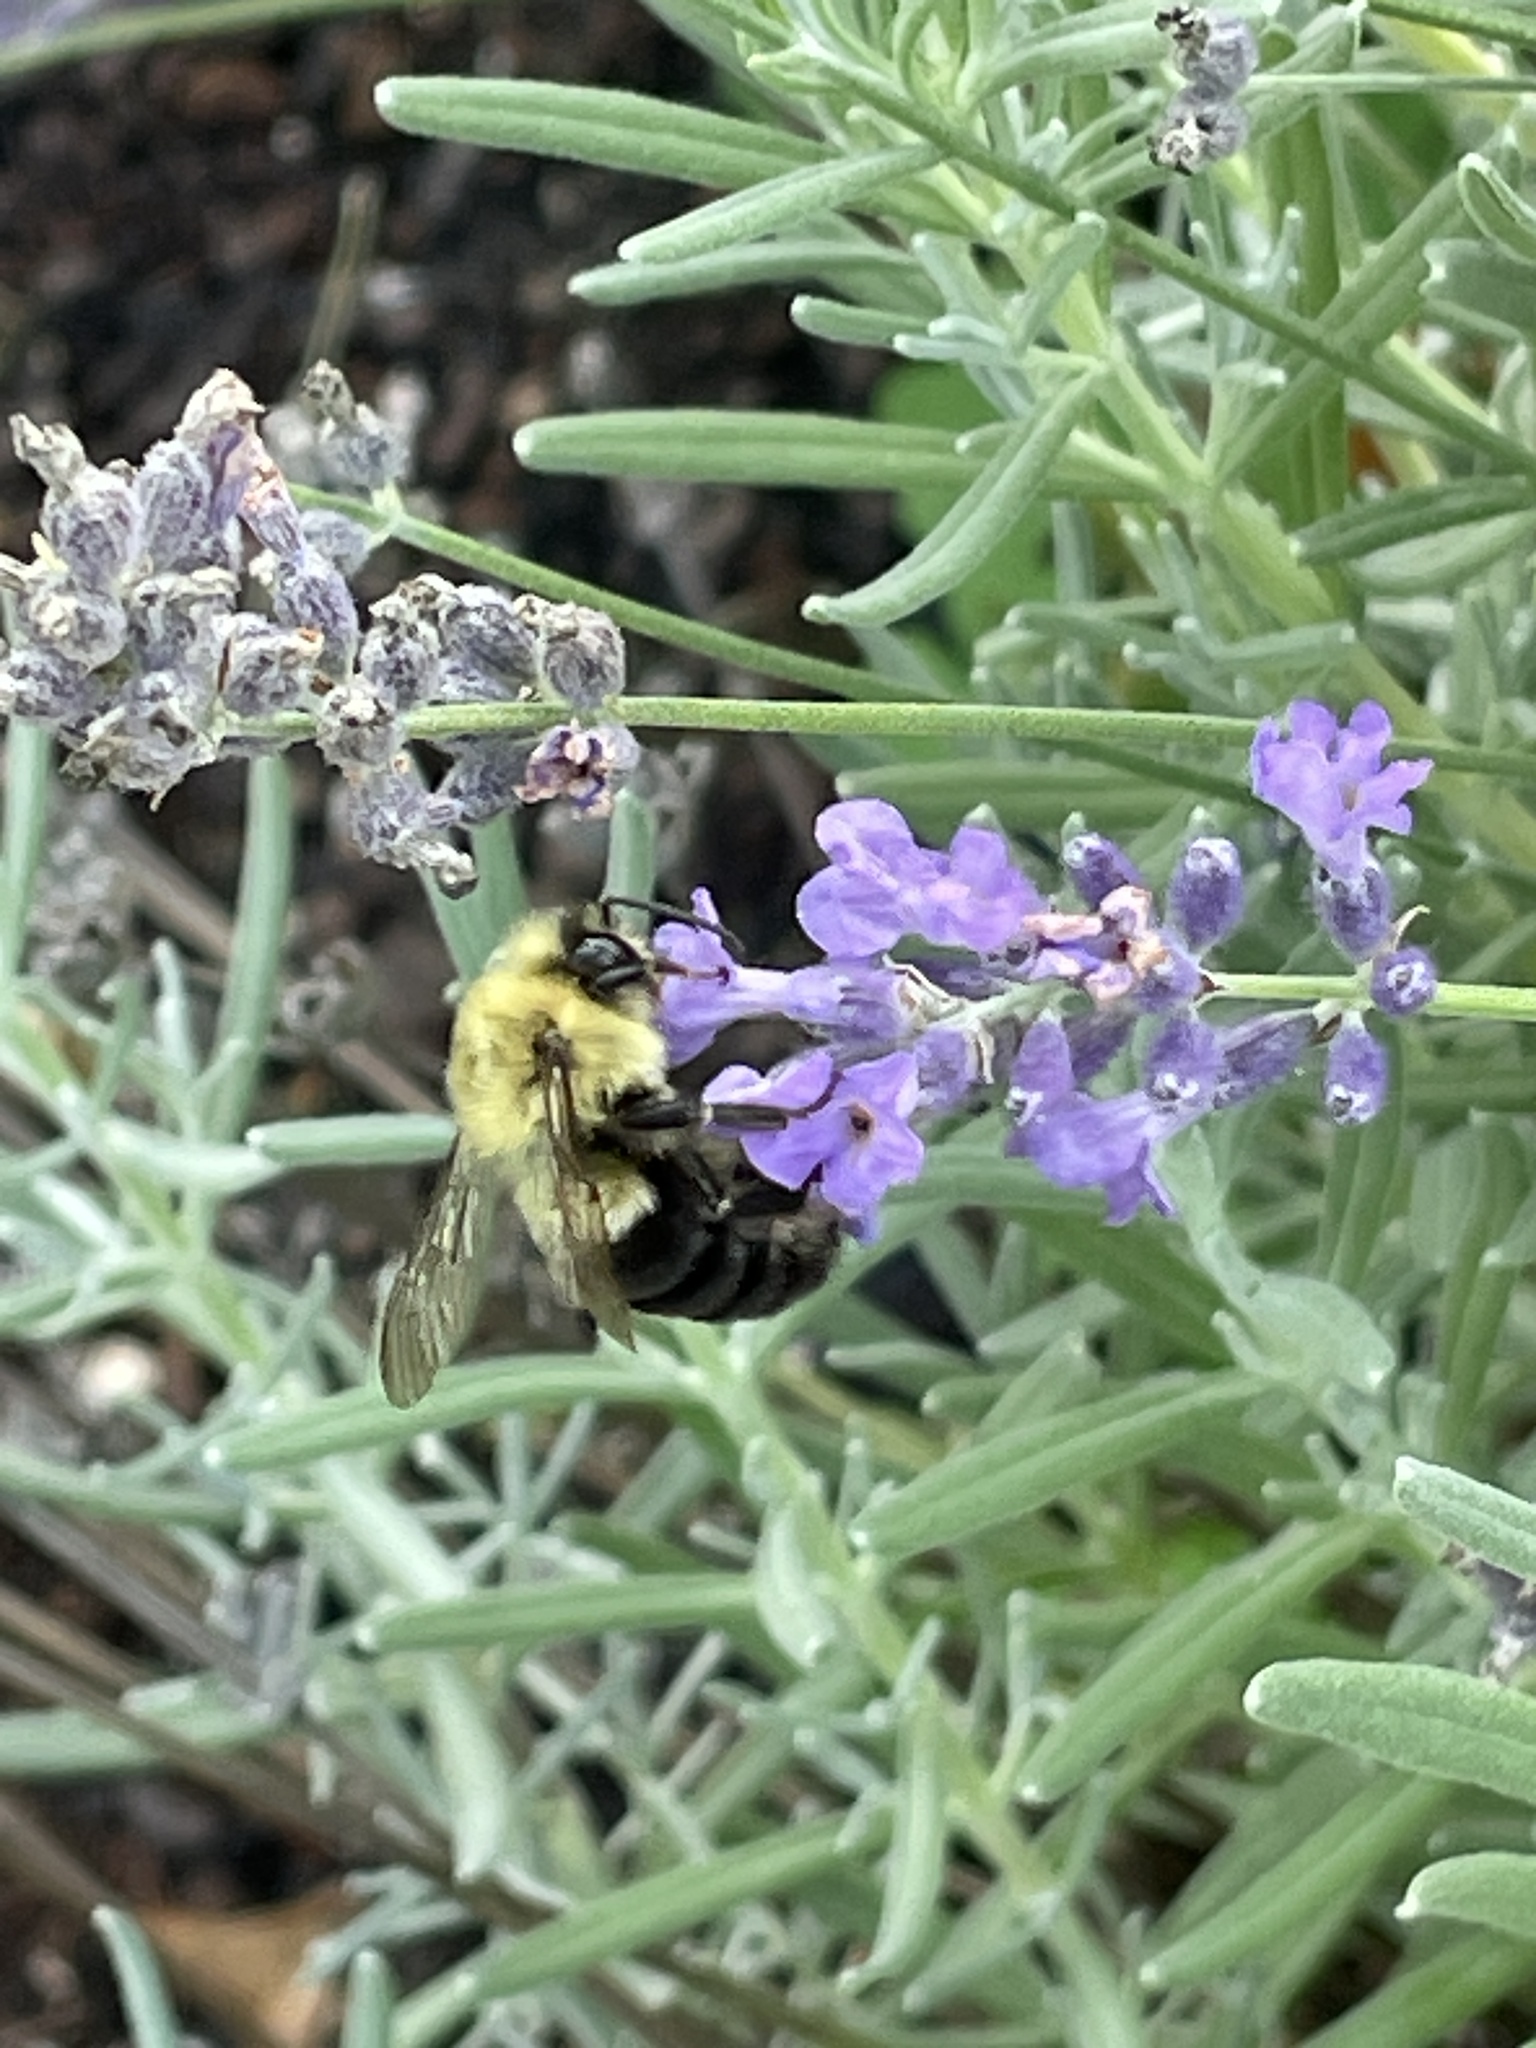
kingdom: Animalia
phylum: Arthropoda
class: Insecta
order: Hymenoptera
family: Apidae
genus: Bombus
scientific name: Bombus impatiens
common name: Common eastern bumble bee
